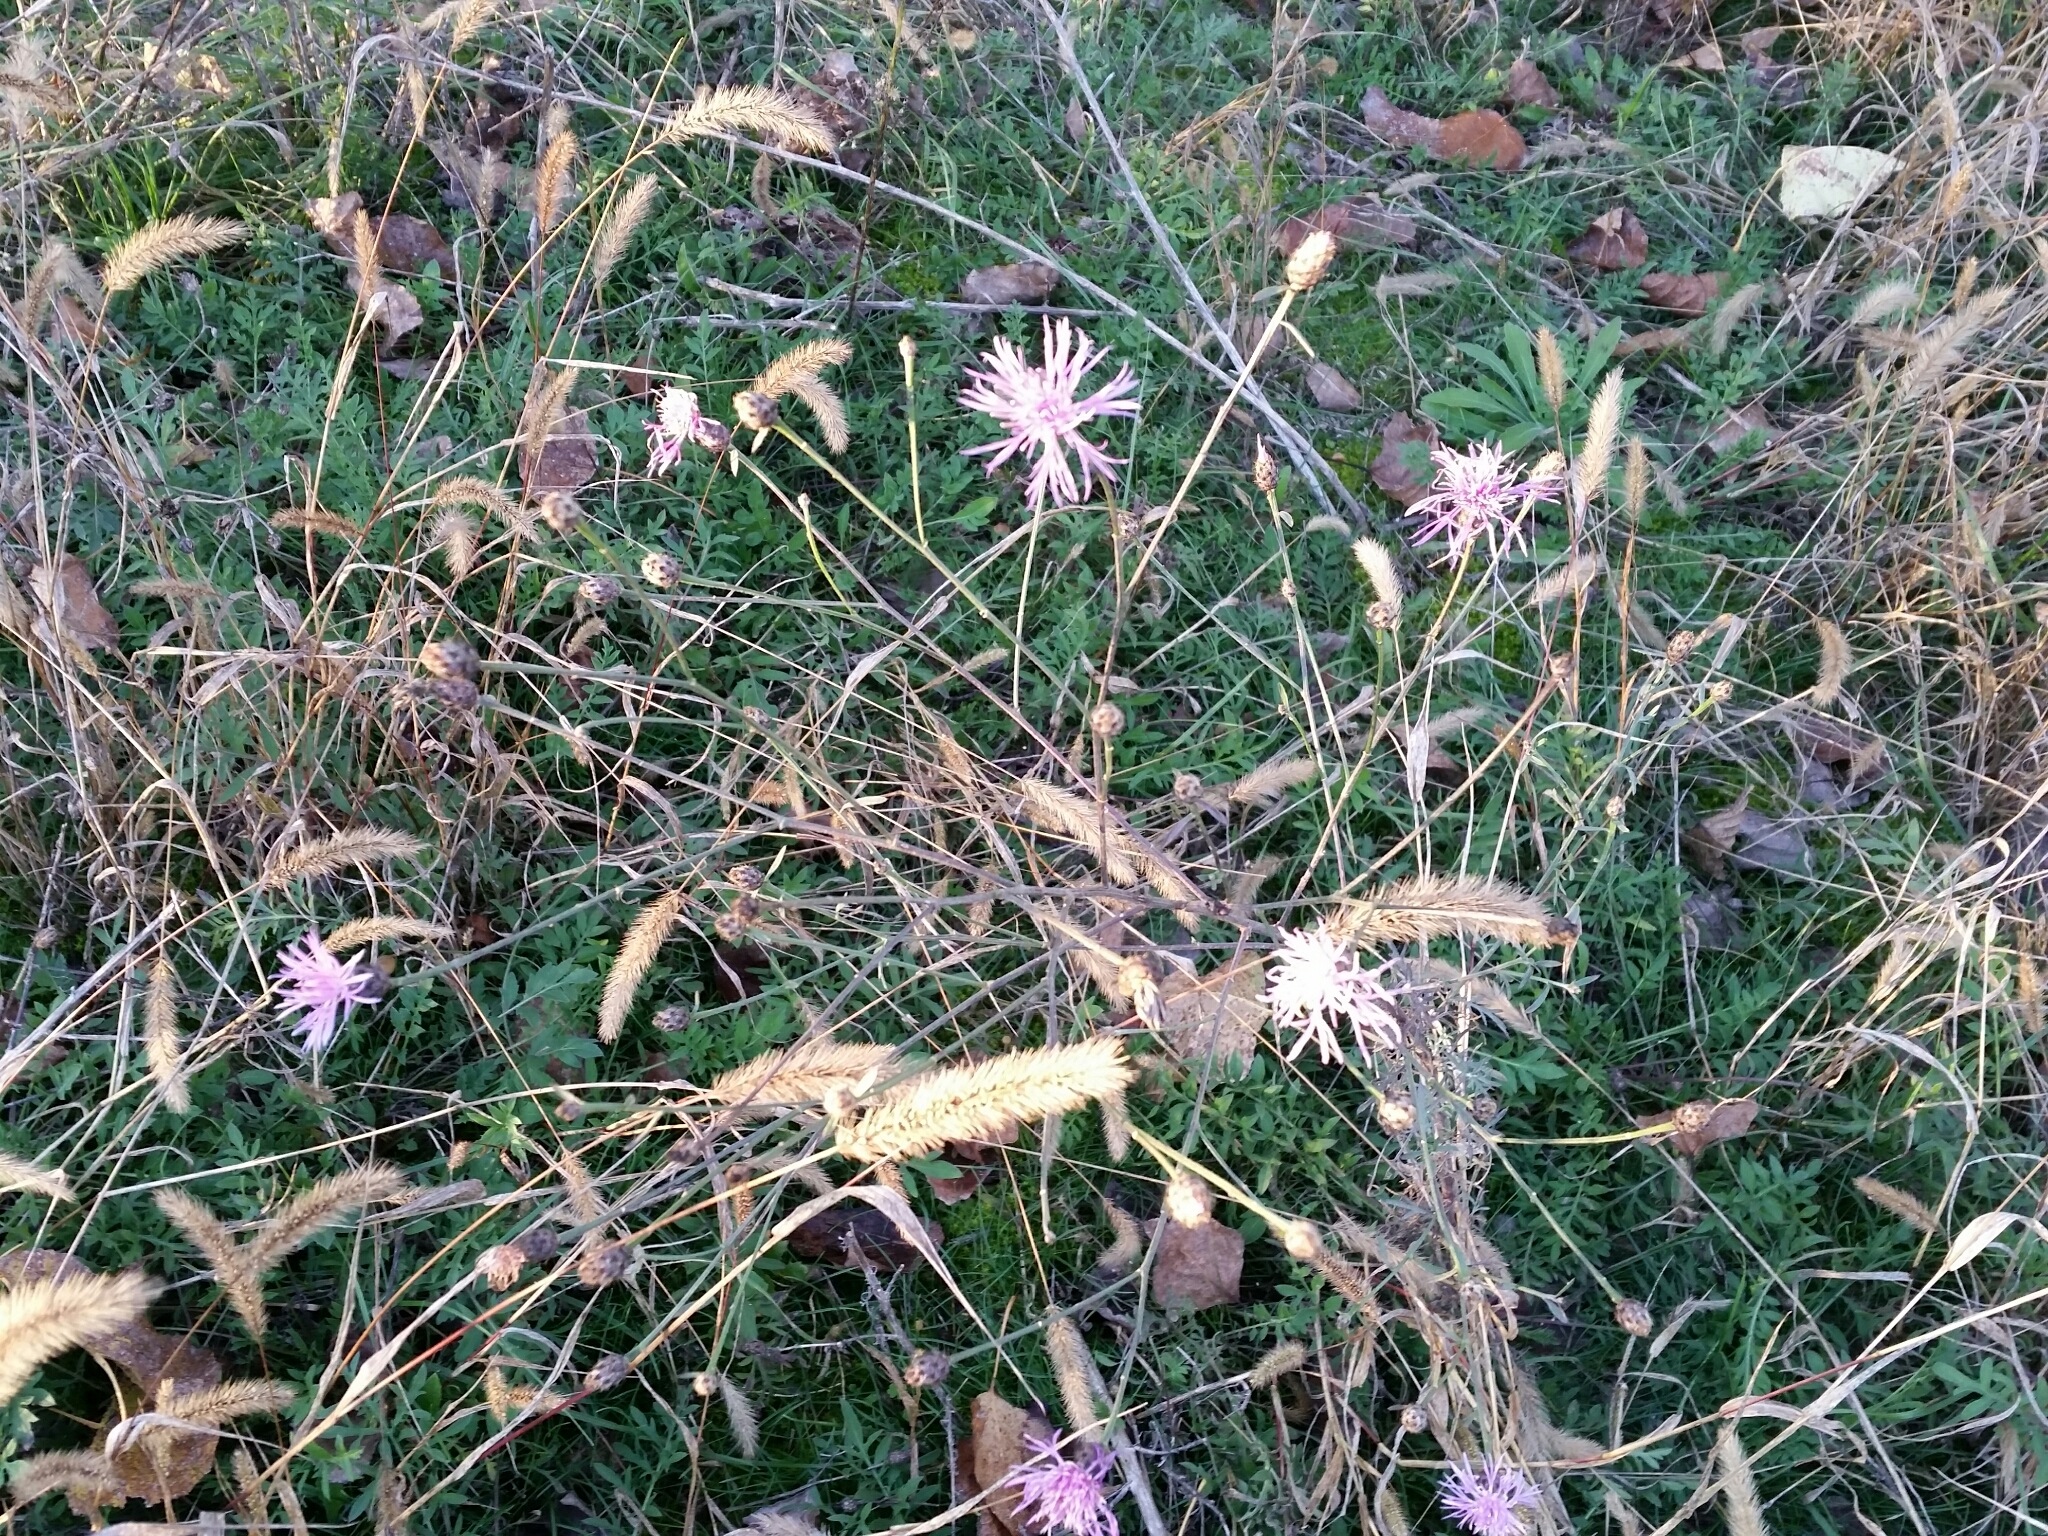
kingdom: Plantae
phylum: Tracheophyta
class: Magnoliopsida
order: Asterales
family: Asteraceae
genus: Centaurea
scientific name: Centaurea stoebe
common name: Spotted knapweed
